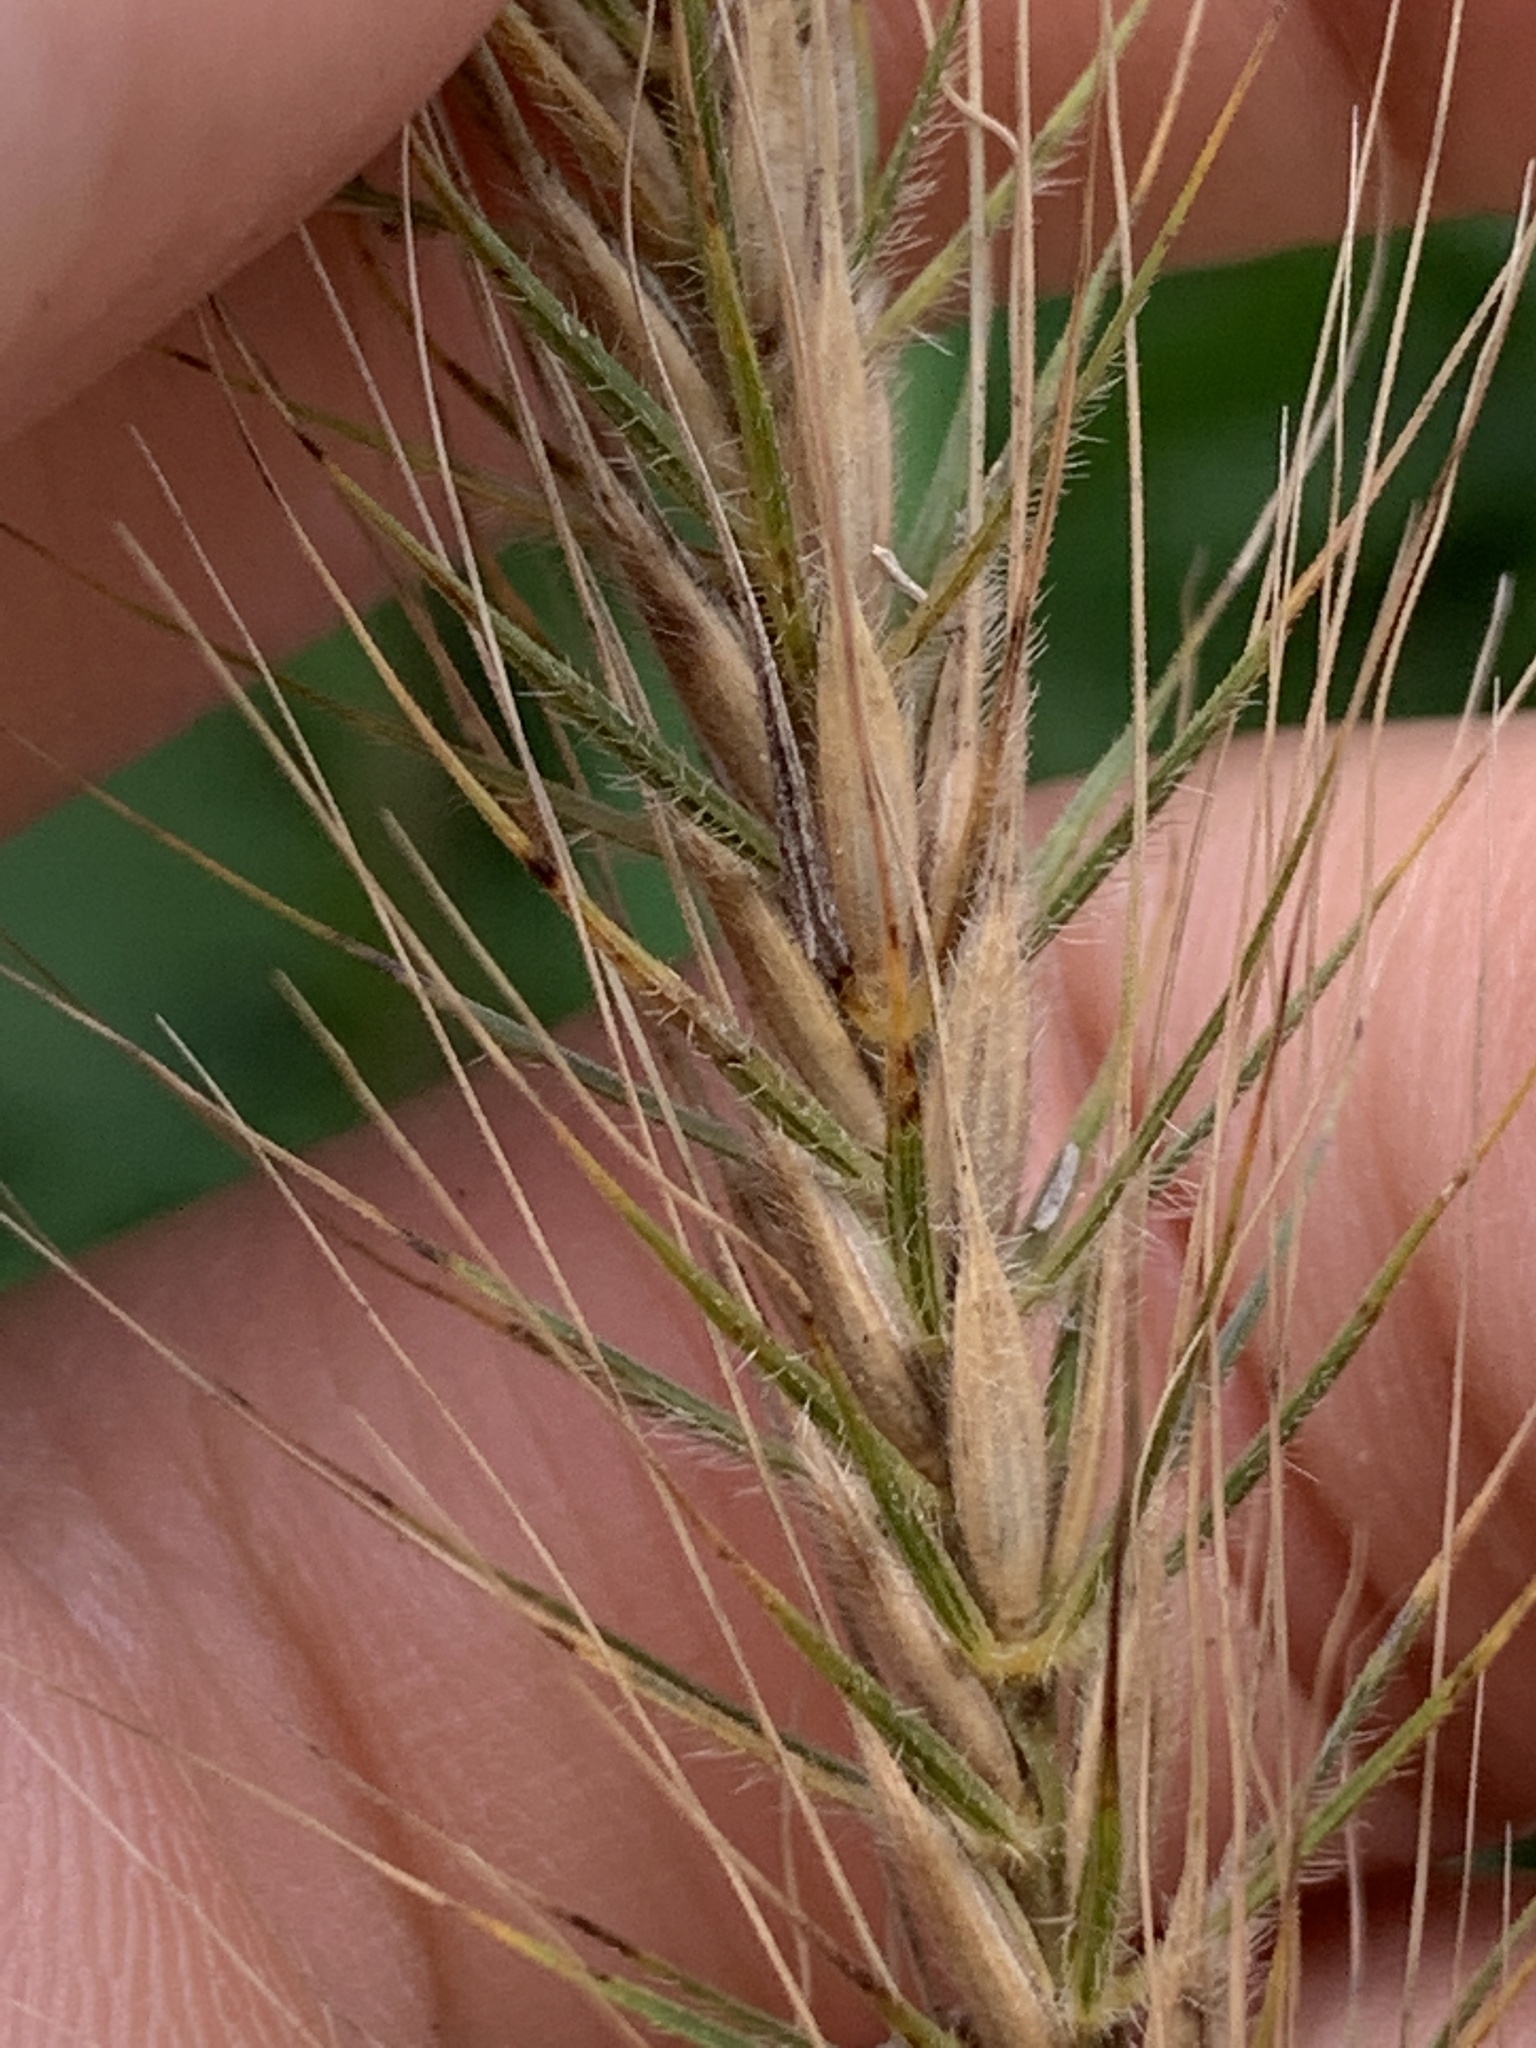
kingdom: Plantae
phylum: Tracheophyta
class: Liliopsida
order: Poales
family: Poaceae
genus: Elymus
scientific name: Elymus villosus
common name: Downy wild rye
